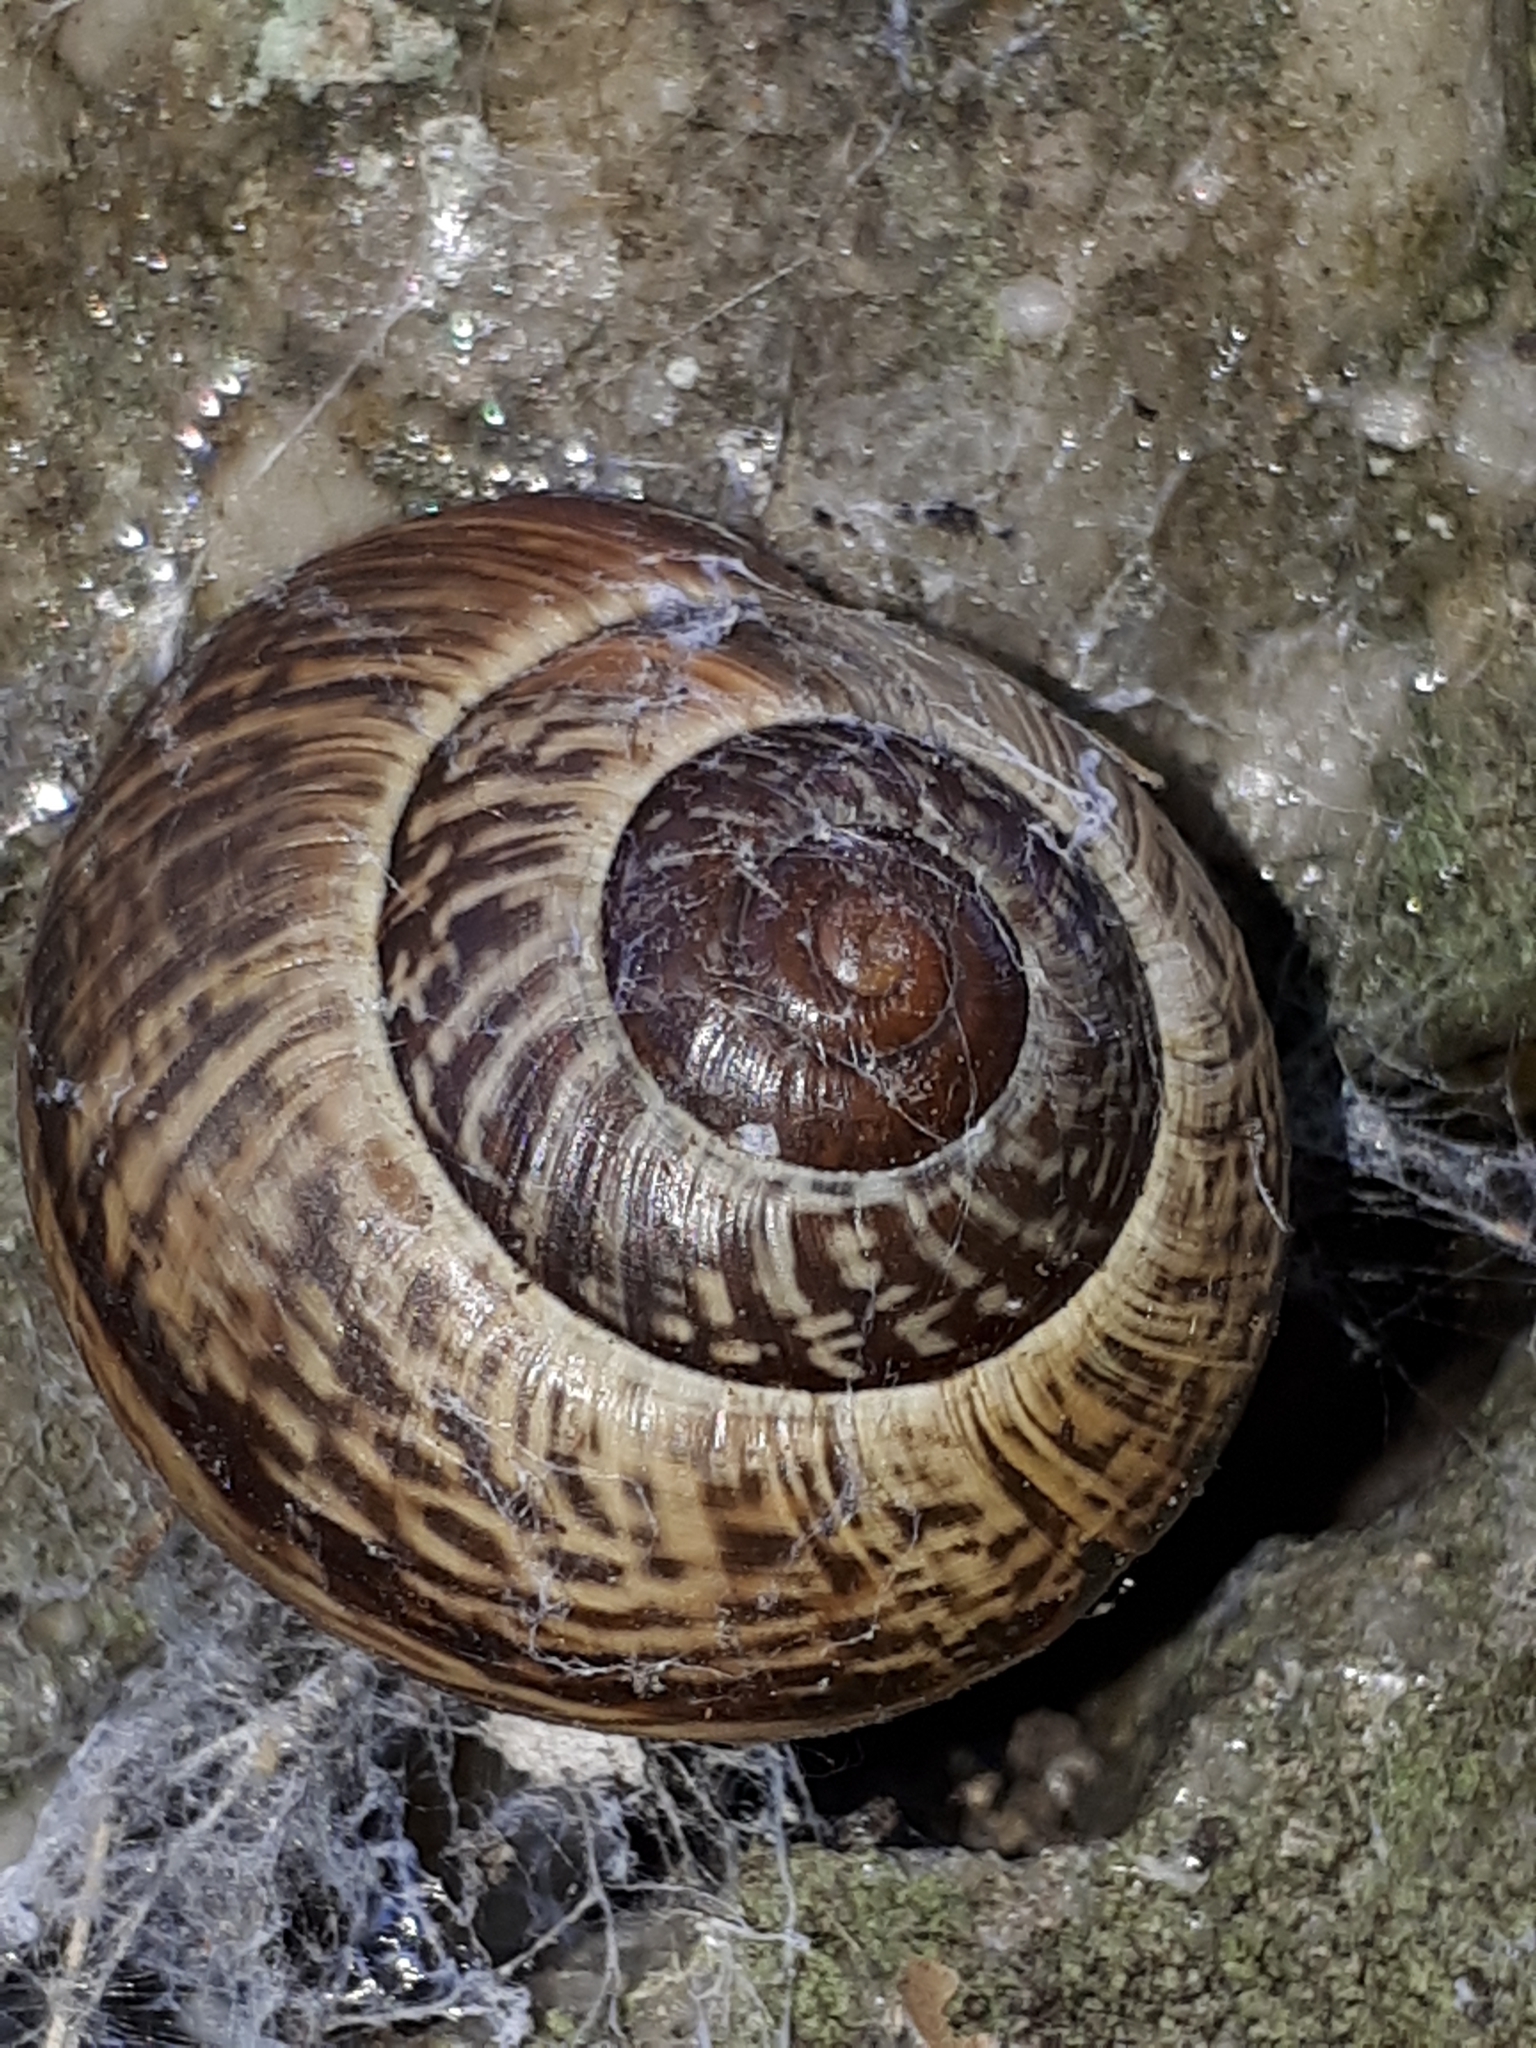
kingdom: Animalia
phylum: Mollusca
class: Gastropoda
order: Stylommatophora
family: Helicidae
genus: Arianta
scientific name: Arianta arbustorum
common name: Copse snail
